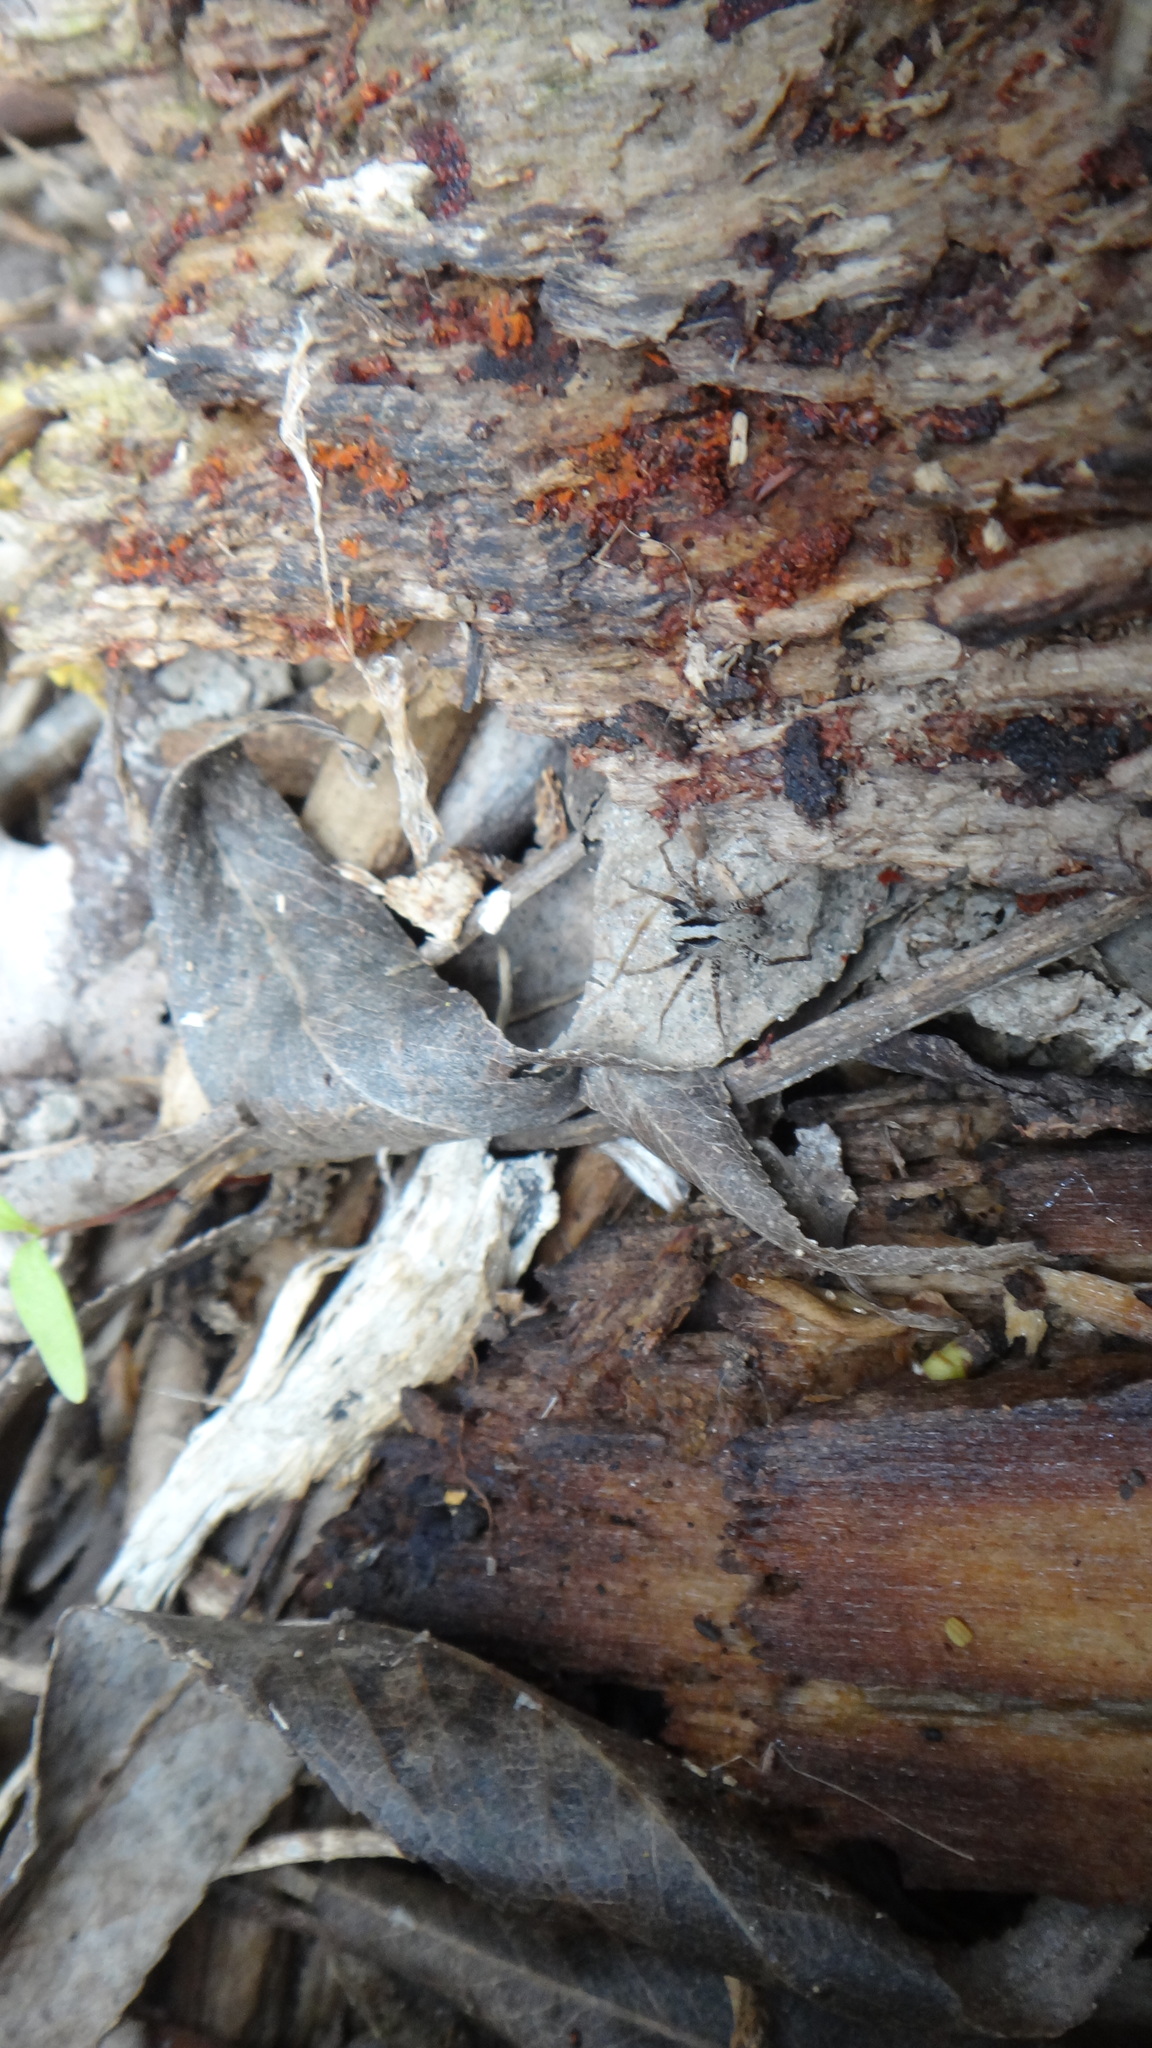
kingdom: Animalia
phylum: Arthropoda
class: Arachnida
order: Araneae
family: Lycosidae
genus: Pardosa
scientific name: Pardosa
